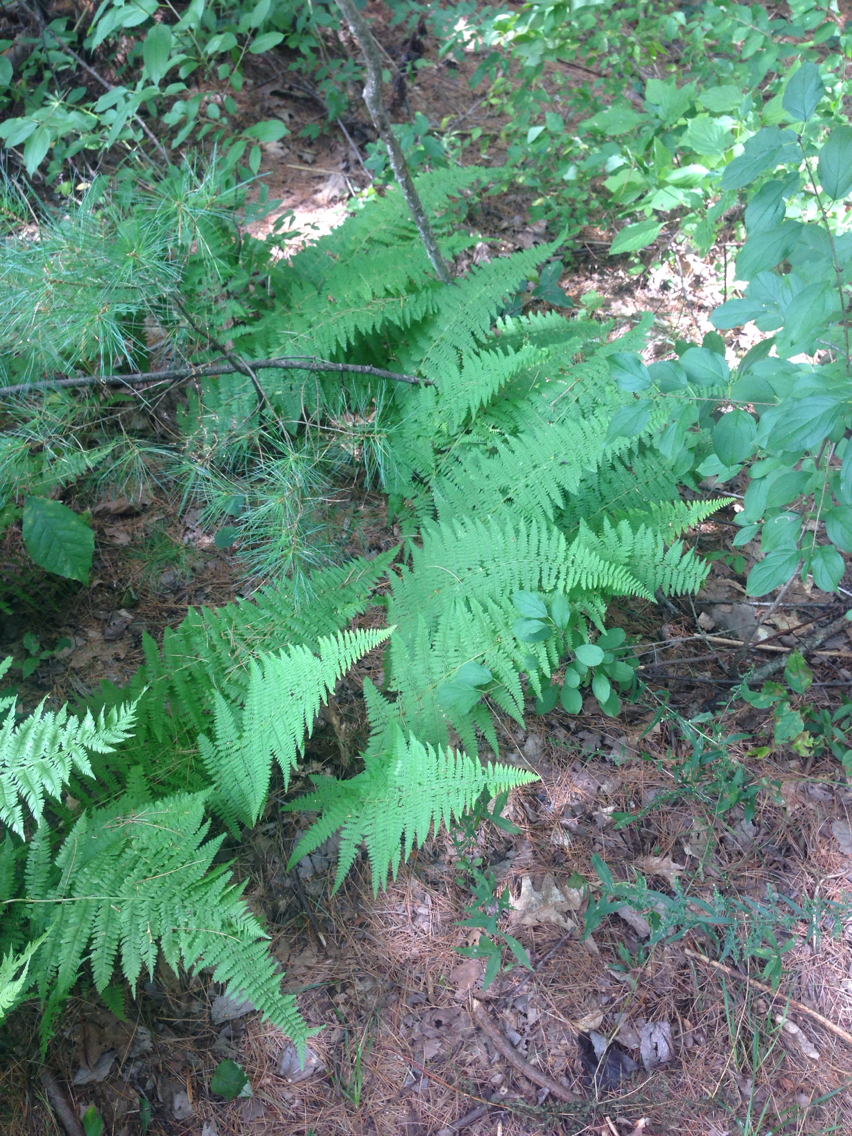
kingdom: Plantae
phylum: Tracheophyta
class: Polypodiopsida
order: Polypodiales
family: Dennstaedtiaceae
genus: Sitobolium
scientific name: Sitobolium punctilobum
